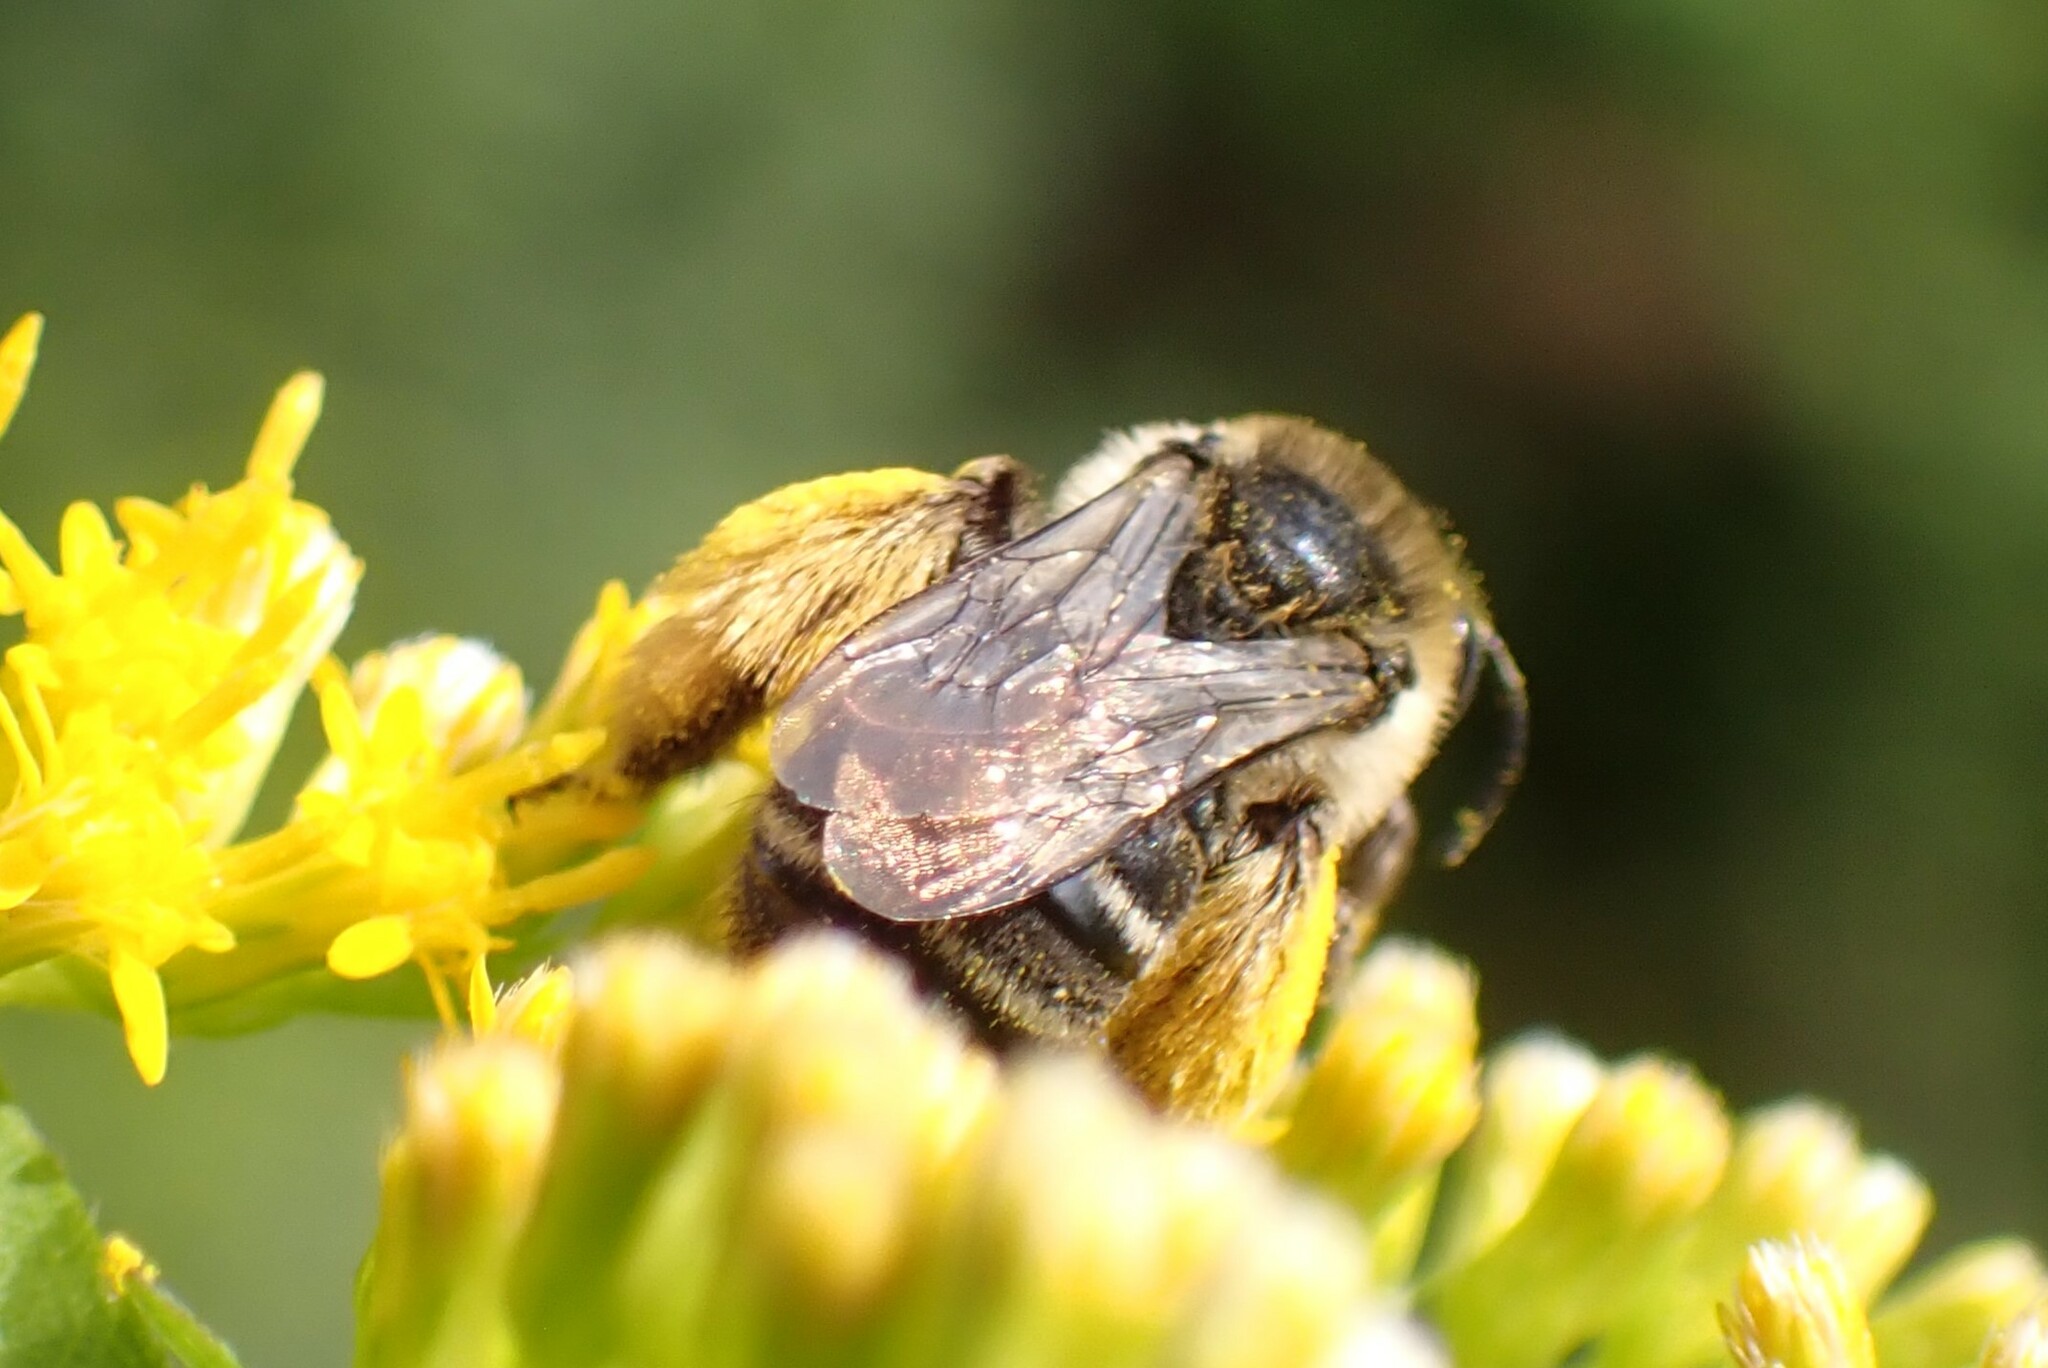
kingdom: Animalia
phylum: Arthropoda
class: Insecta
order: Hymenoptera
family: Apidae
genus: Melissodes
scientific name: Melissodes druriellus
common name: Drury's long-horned bee
